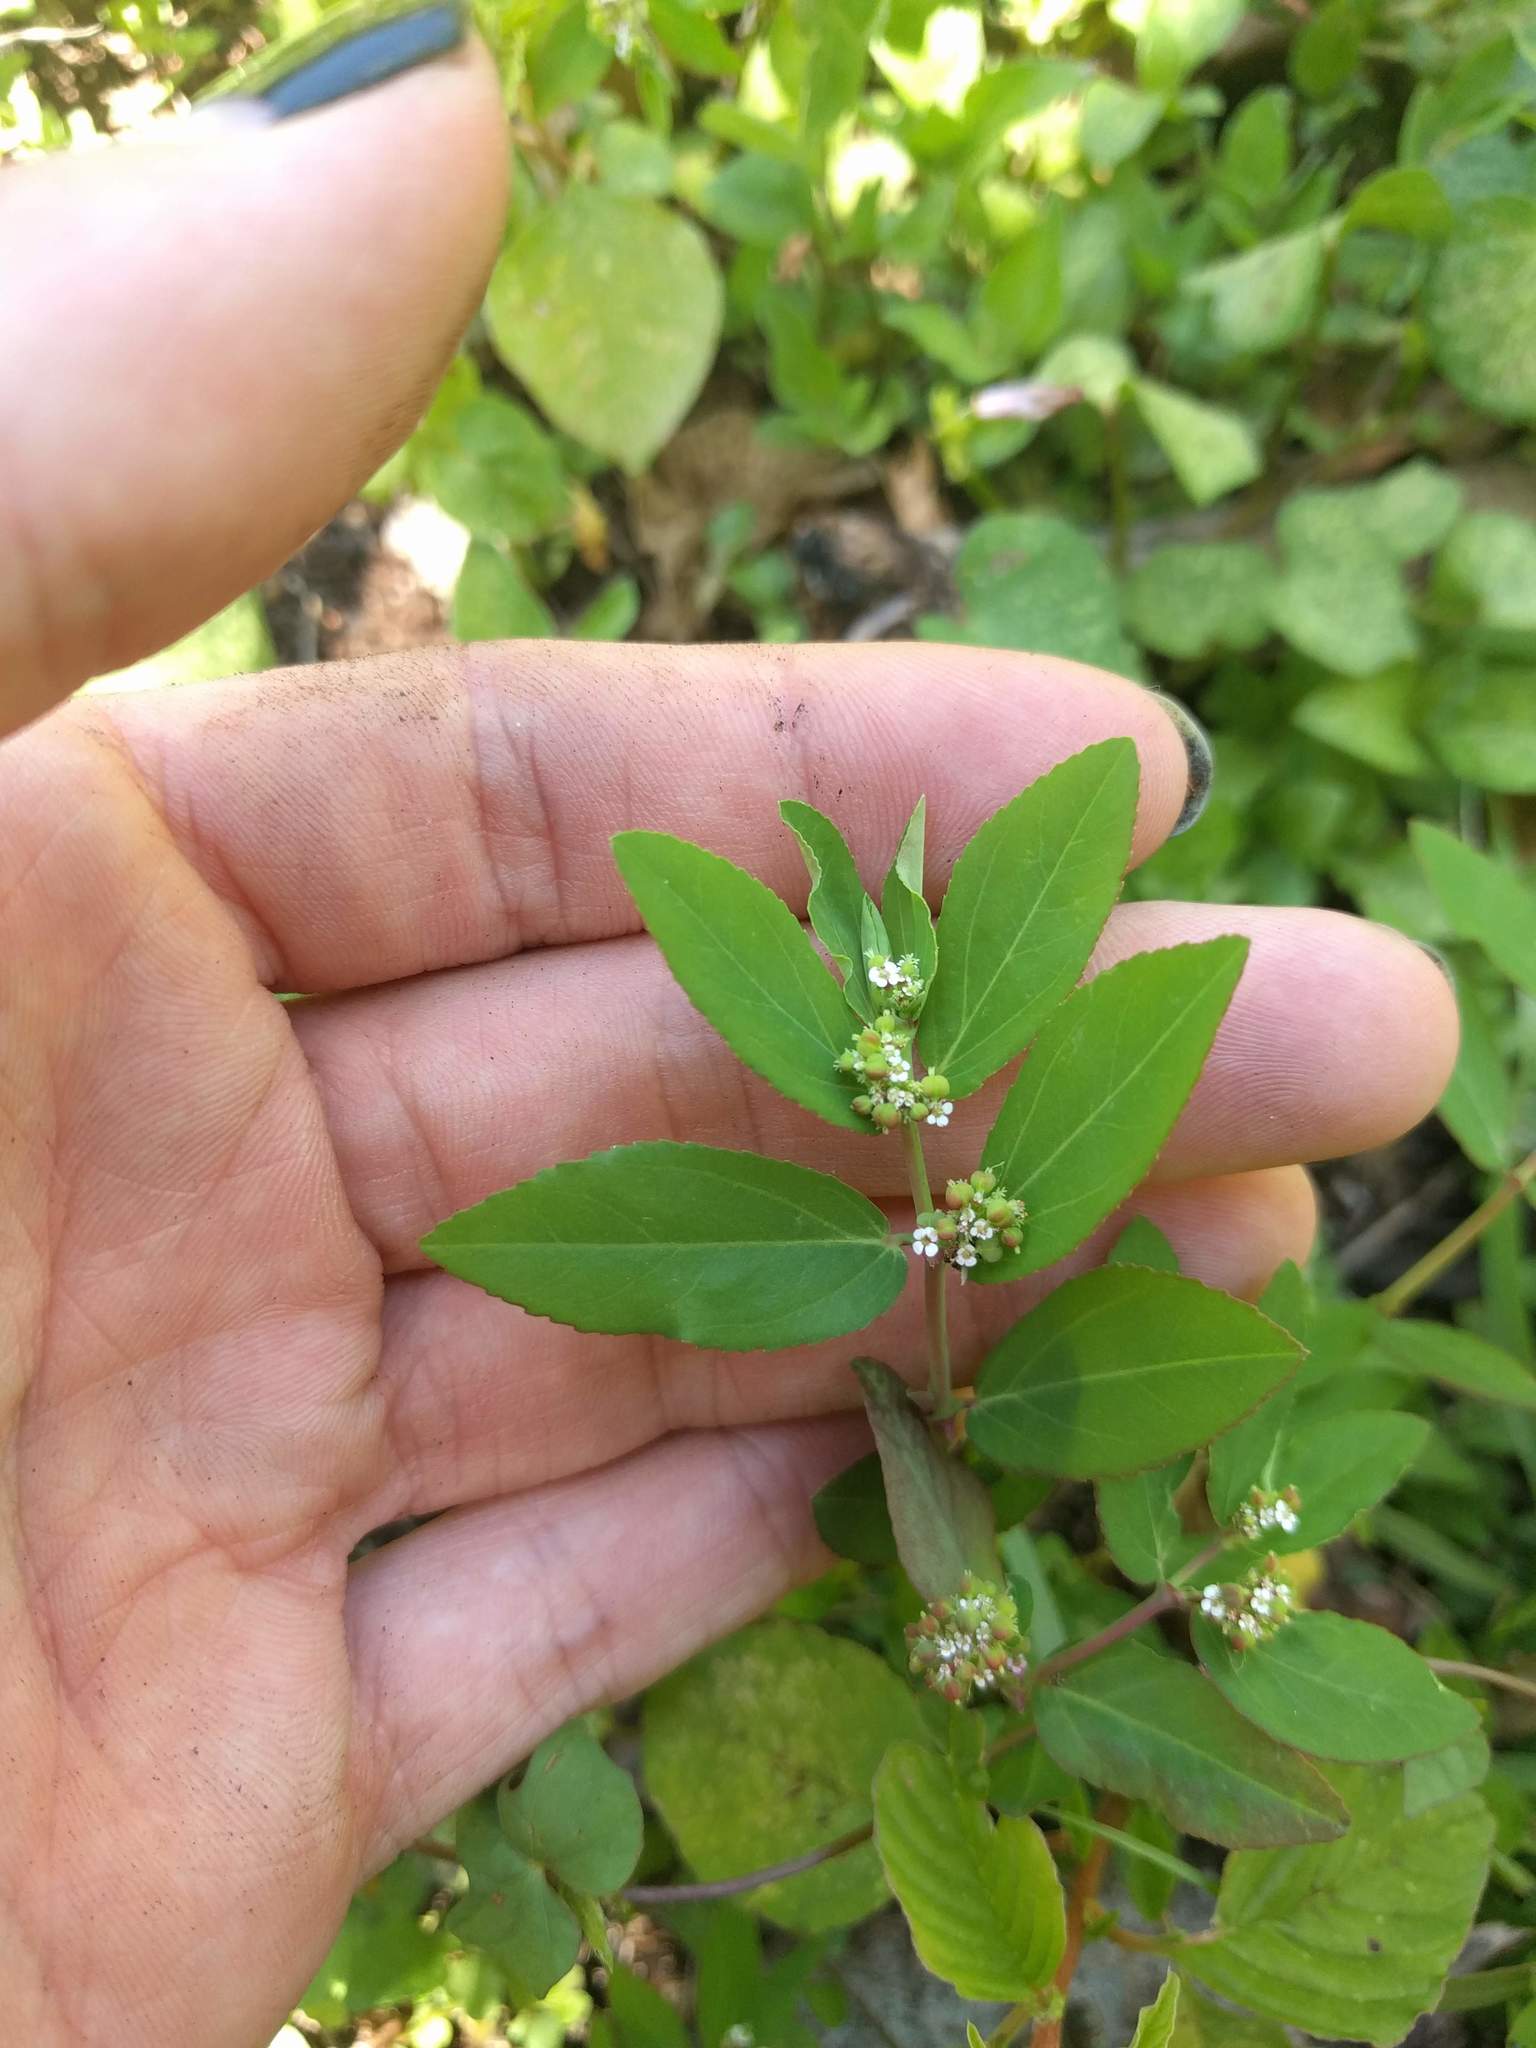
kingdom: Plantae
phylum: Tracheophyta
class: Magnoliopsida
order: Malpighiales
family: Euphorbiaceae
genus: Euphorbia
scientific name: Euphorbia hypericifolia
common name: Graceful sandmat
